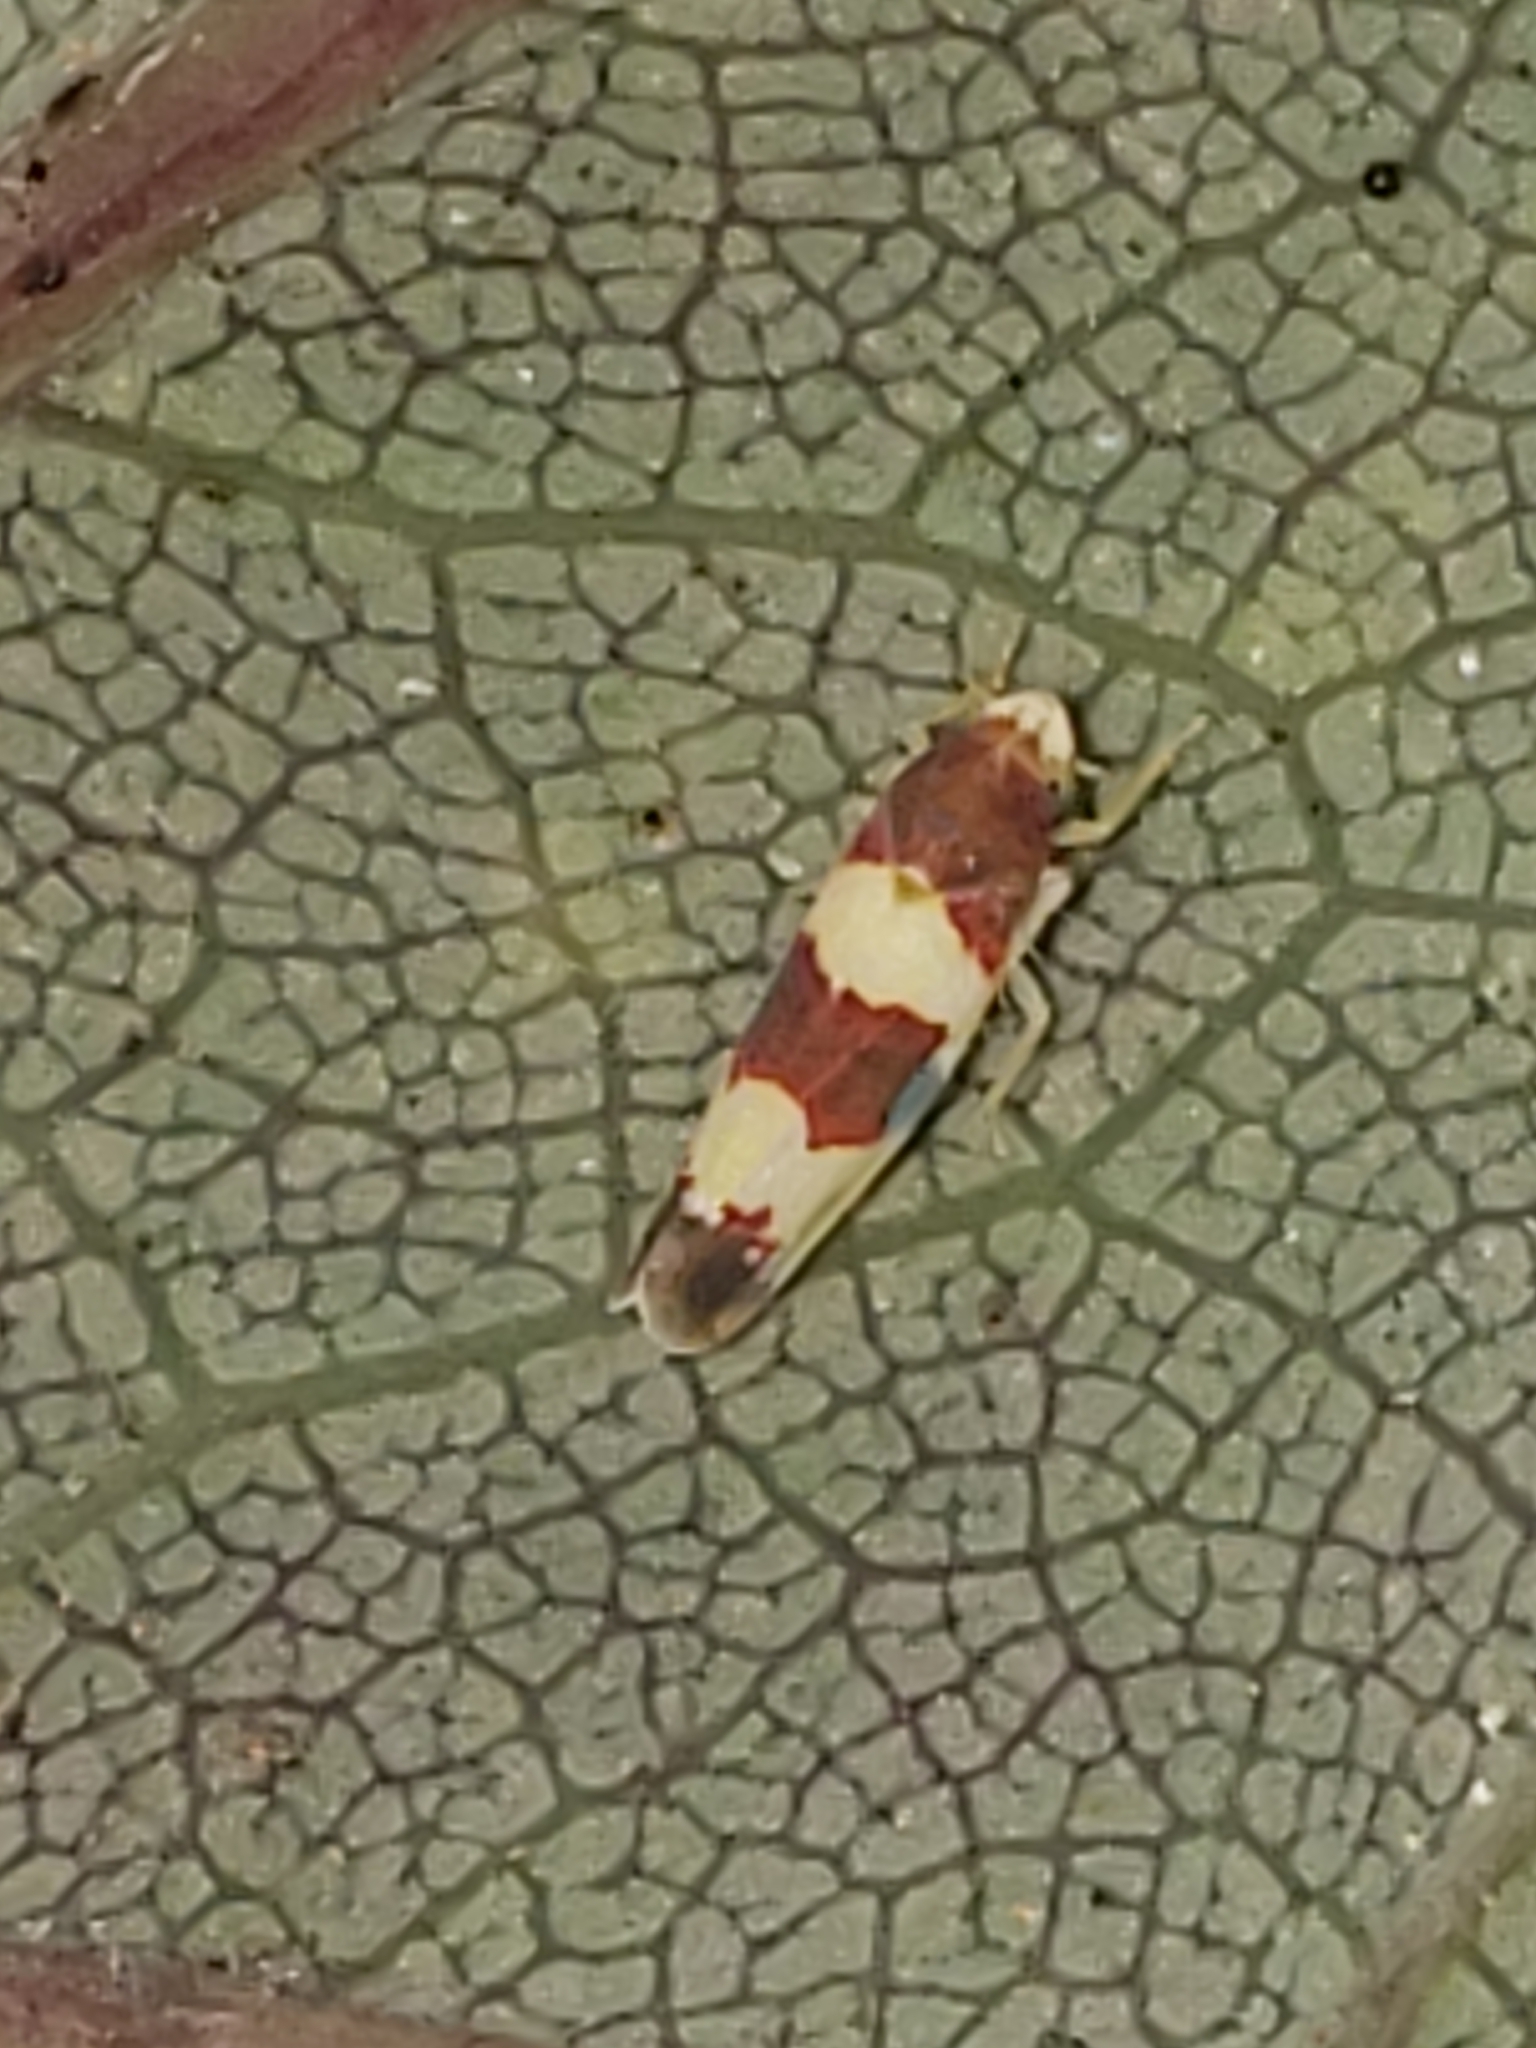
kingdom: Animalia
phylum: Arthropoda
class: Insecta
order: Hemiptera
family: Cicadellidae
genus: Erythroneura
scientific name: Erythroneura bistrata
